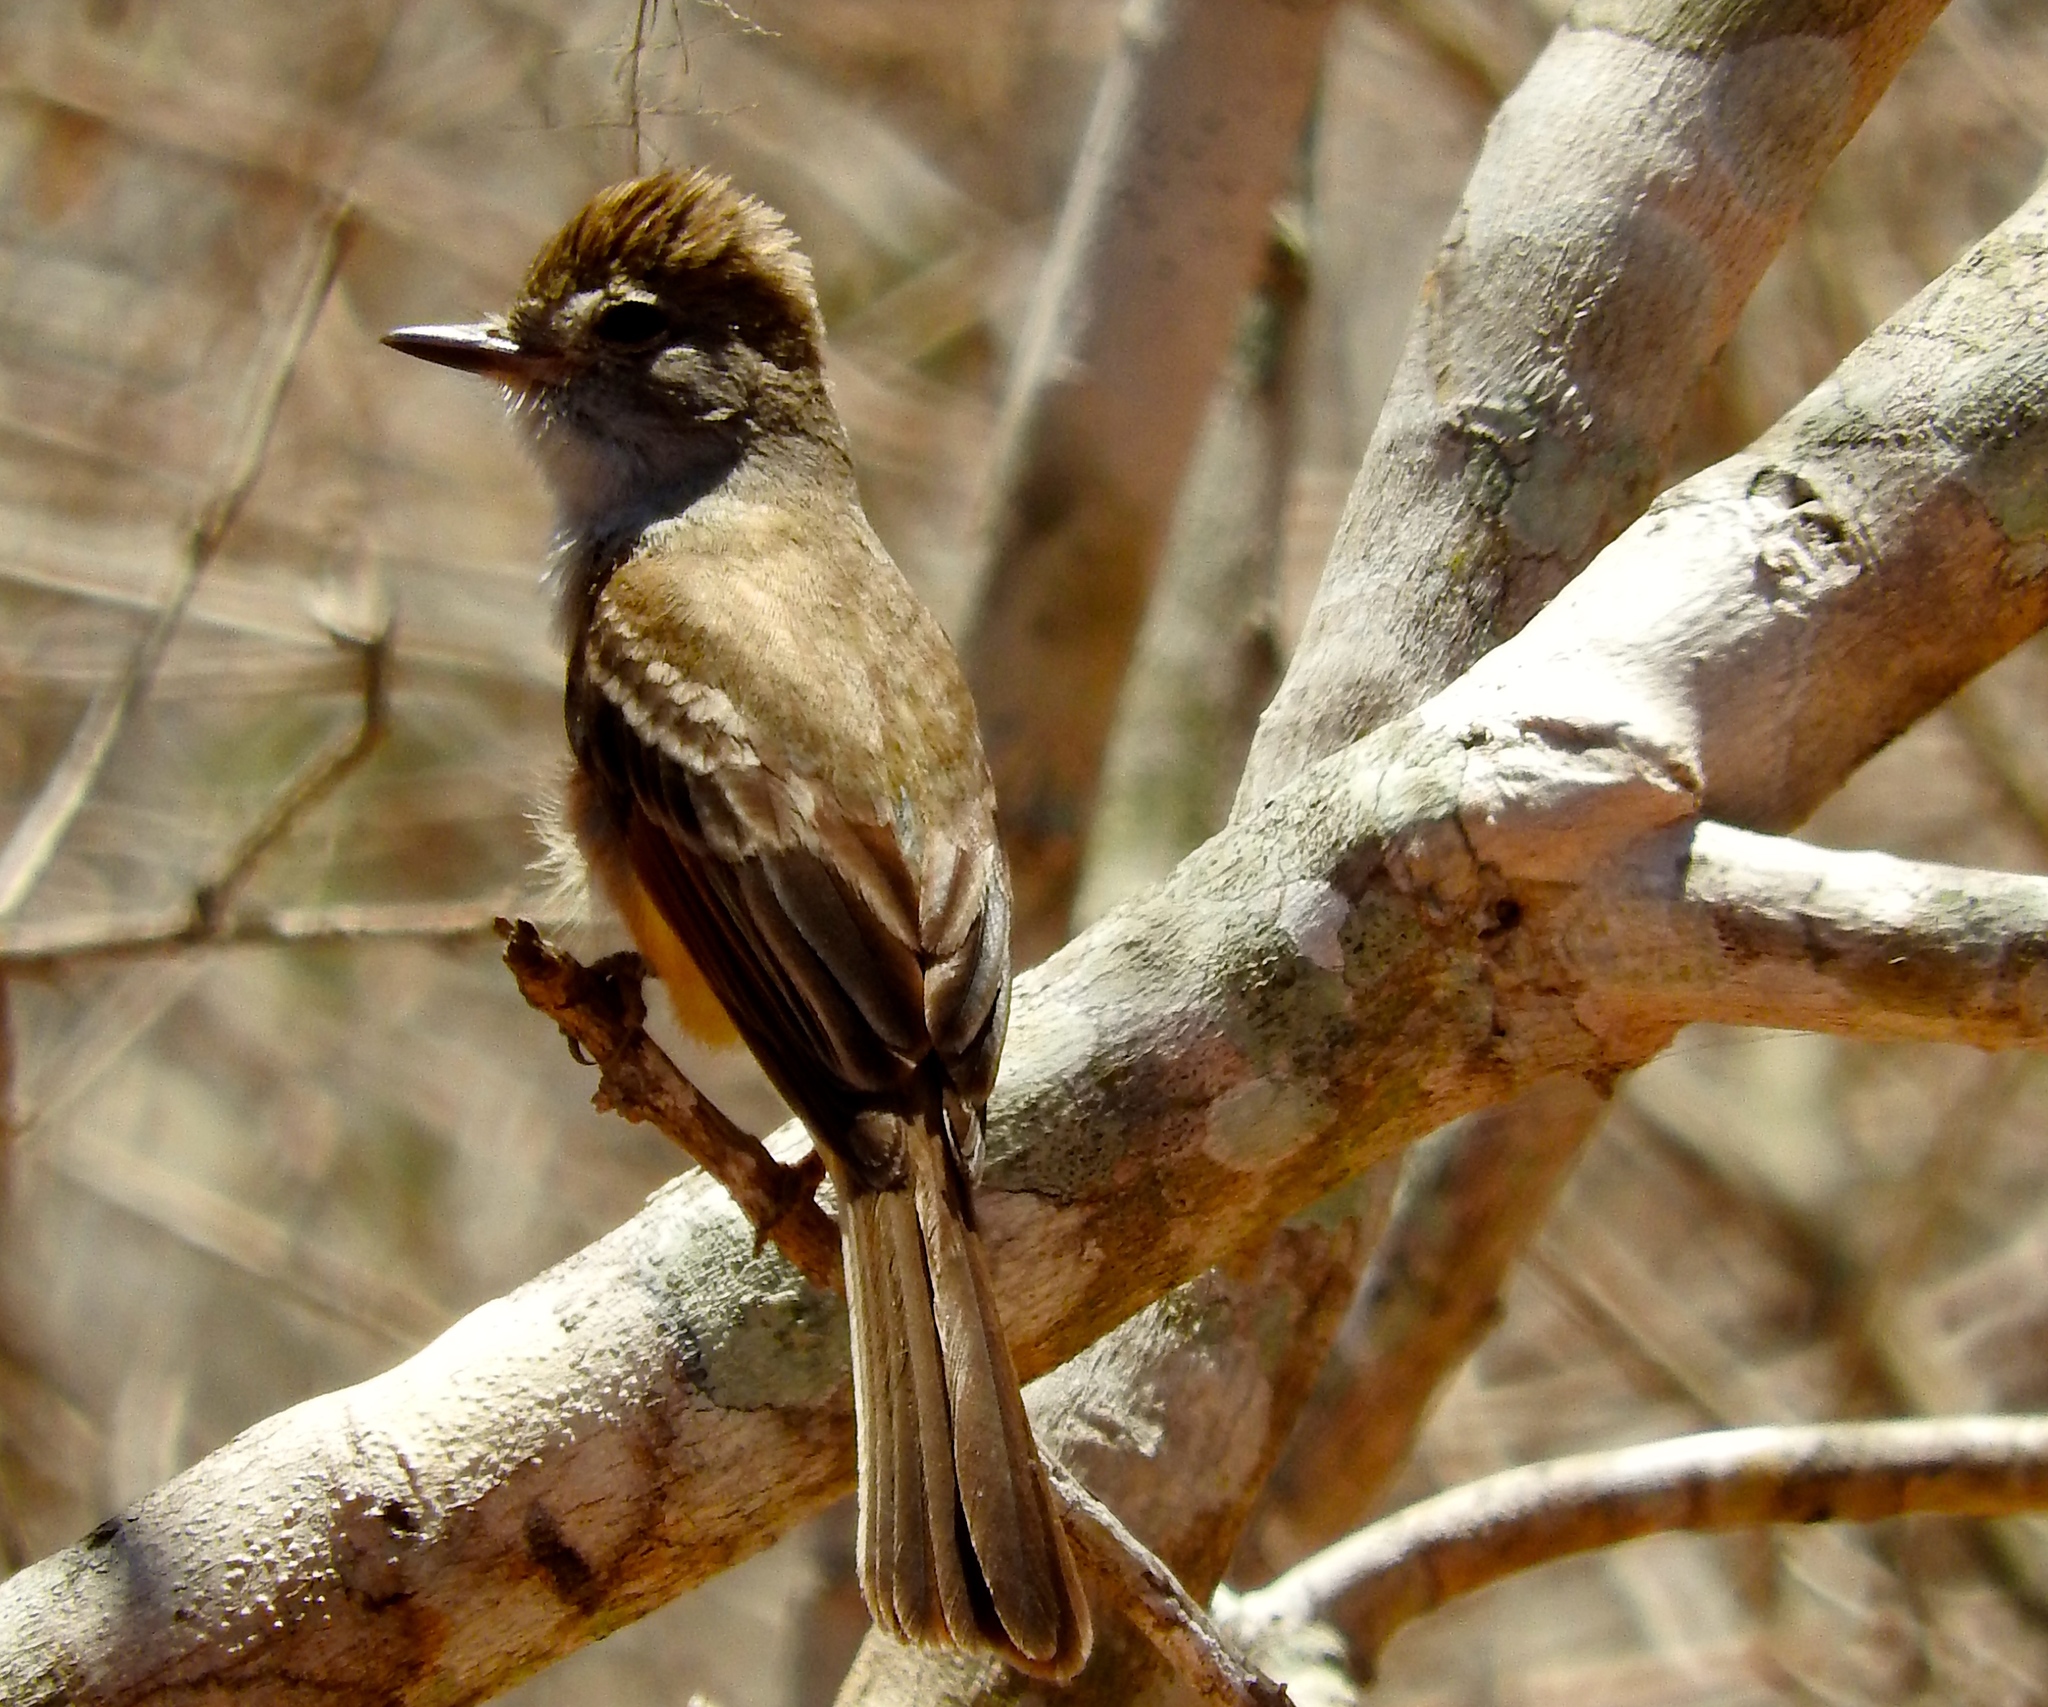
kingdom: Animalia
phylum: Chordata
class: Aves
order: Passeriformes
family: Tyrannidae
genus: Myiarchus
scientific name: Myiarchus
